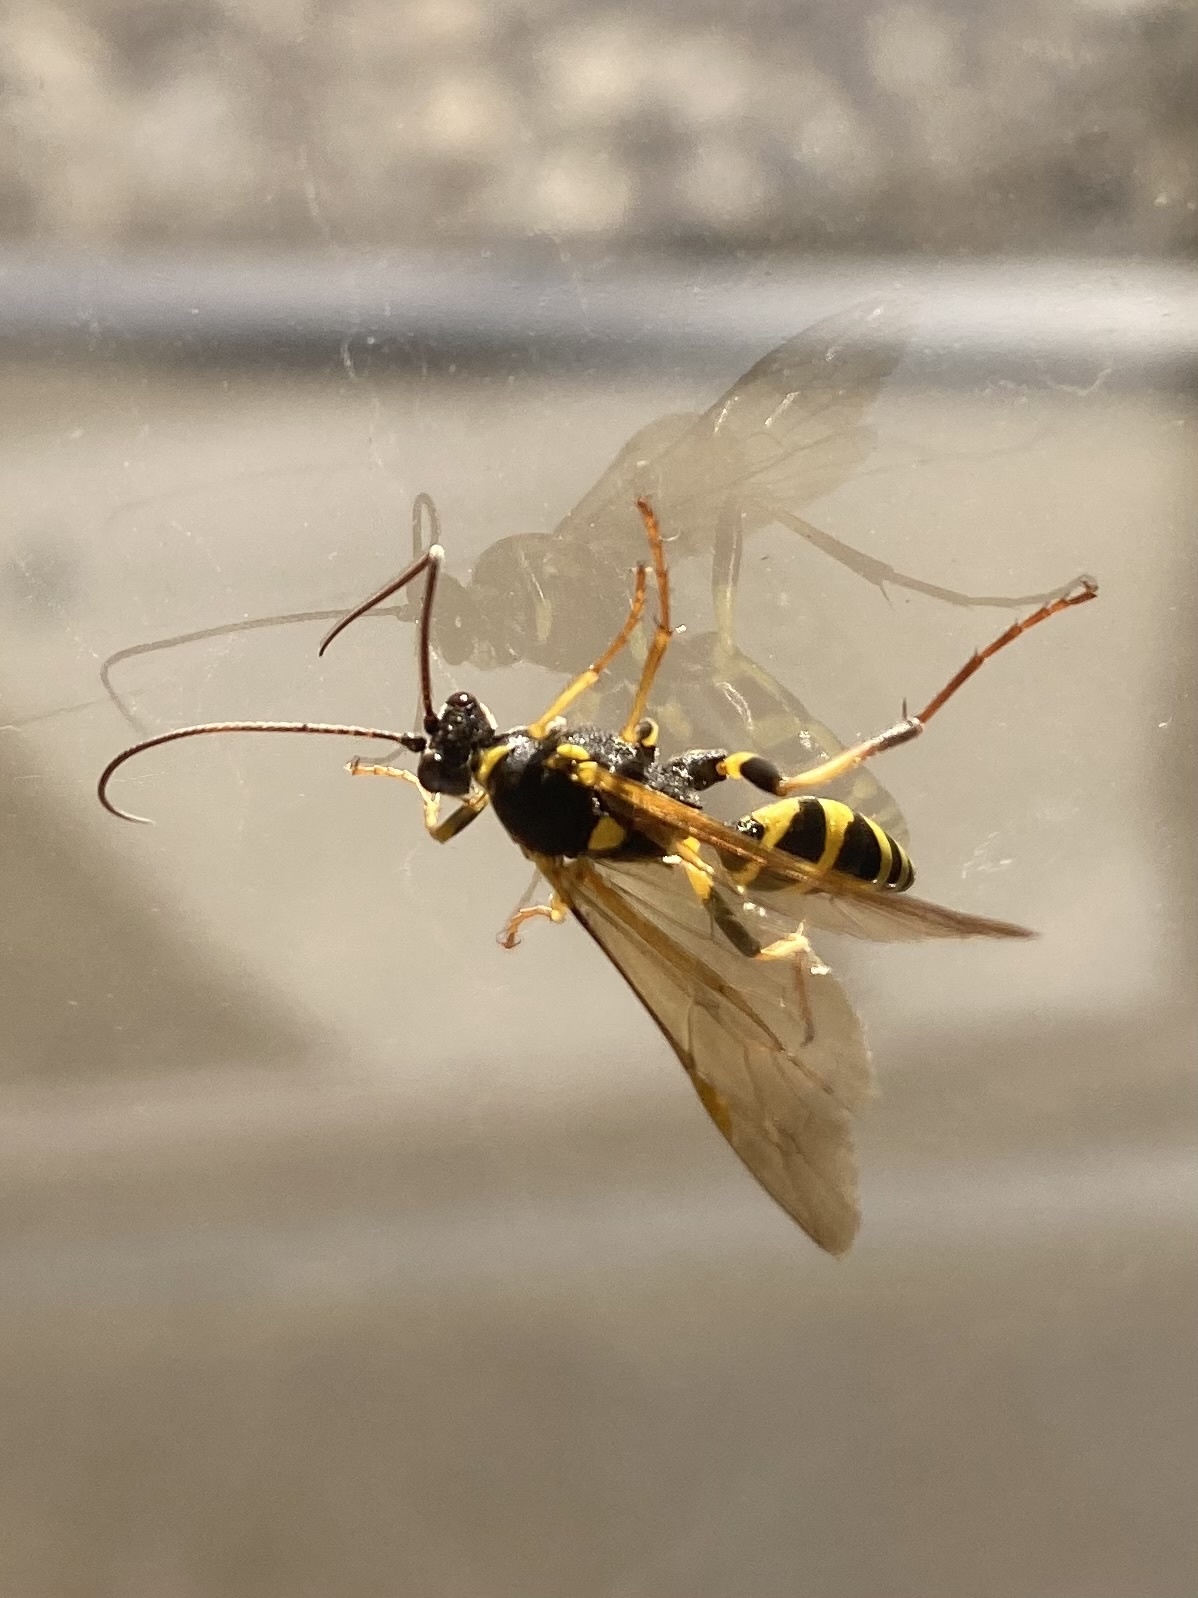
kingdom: Animalia
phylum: Arthropoda
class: Insecta
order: Hymenoptera
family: Ichneumonidae
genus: Amblyteles
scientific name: Amblyteles armatorius
